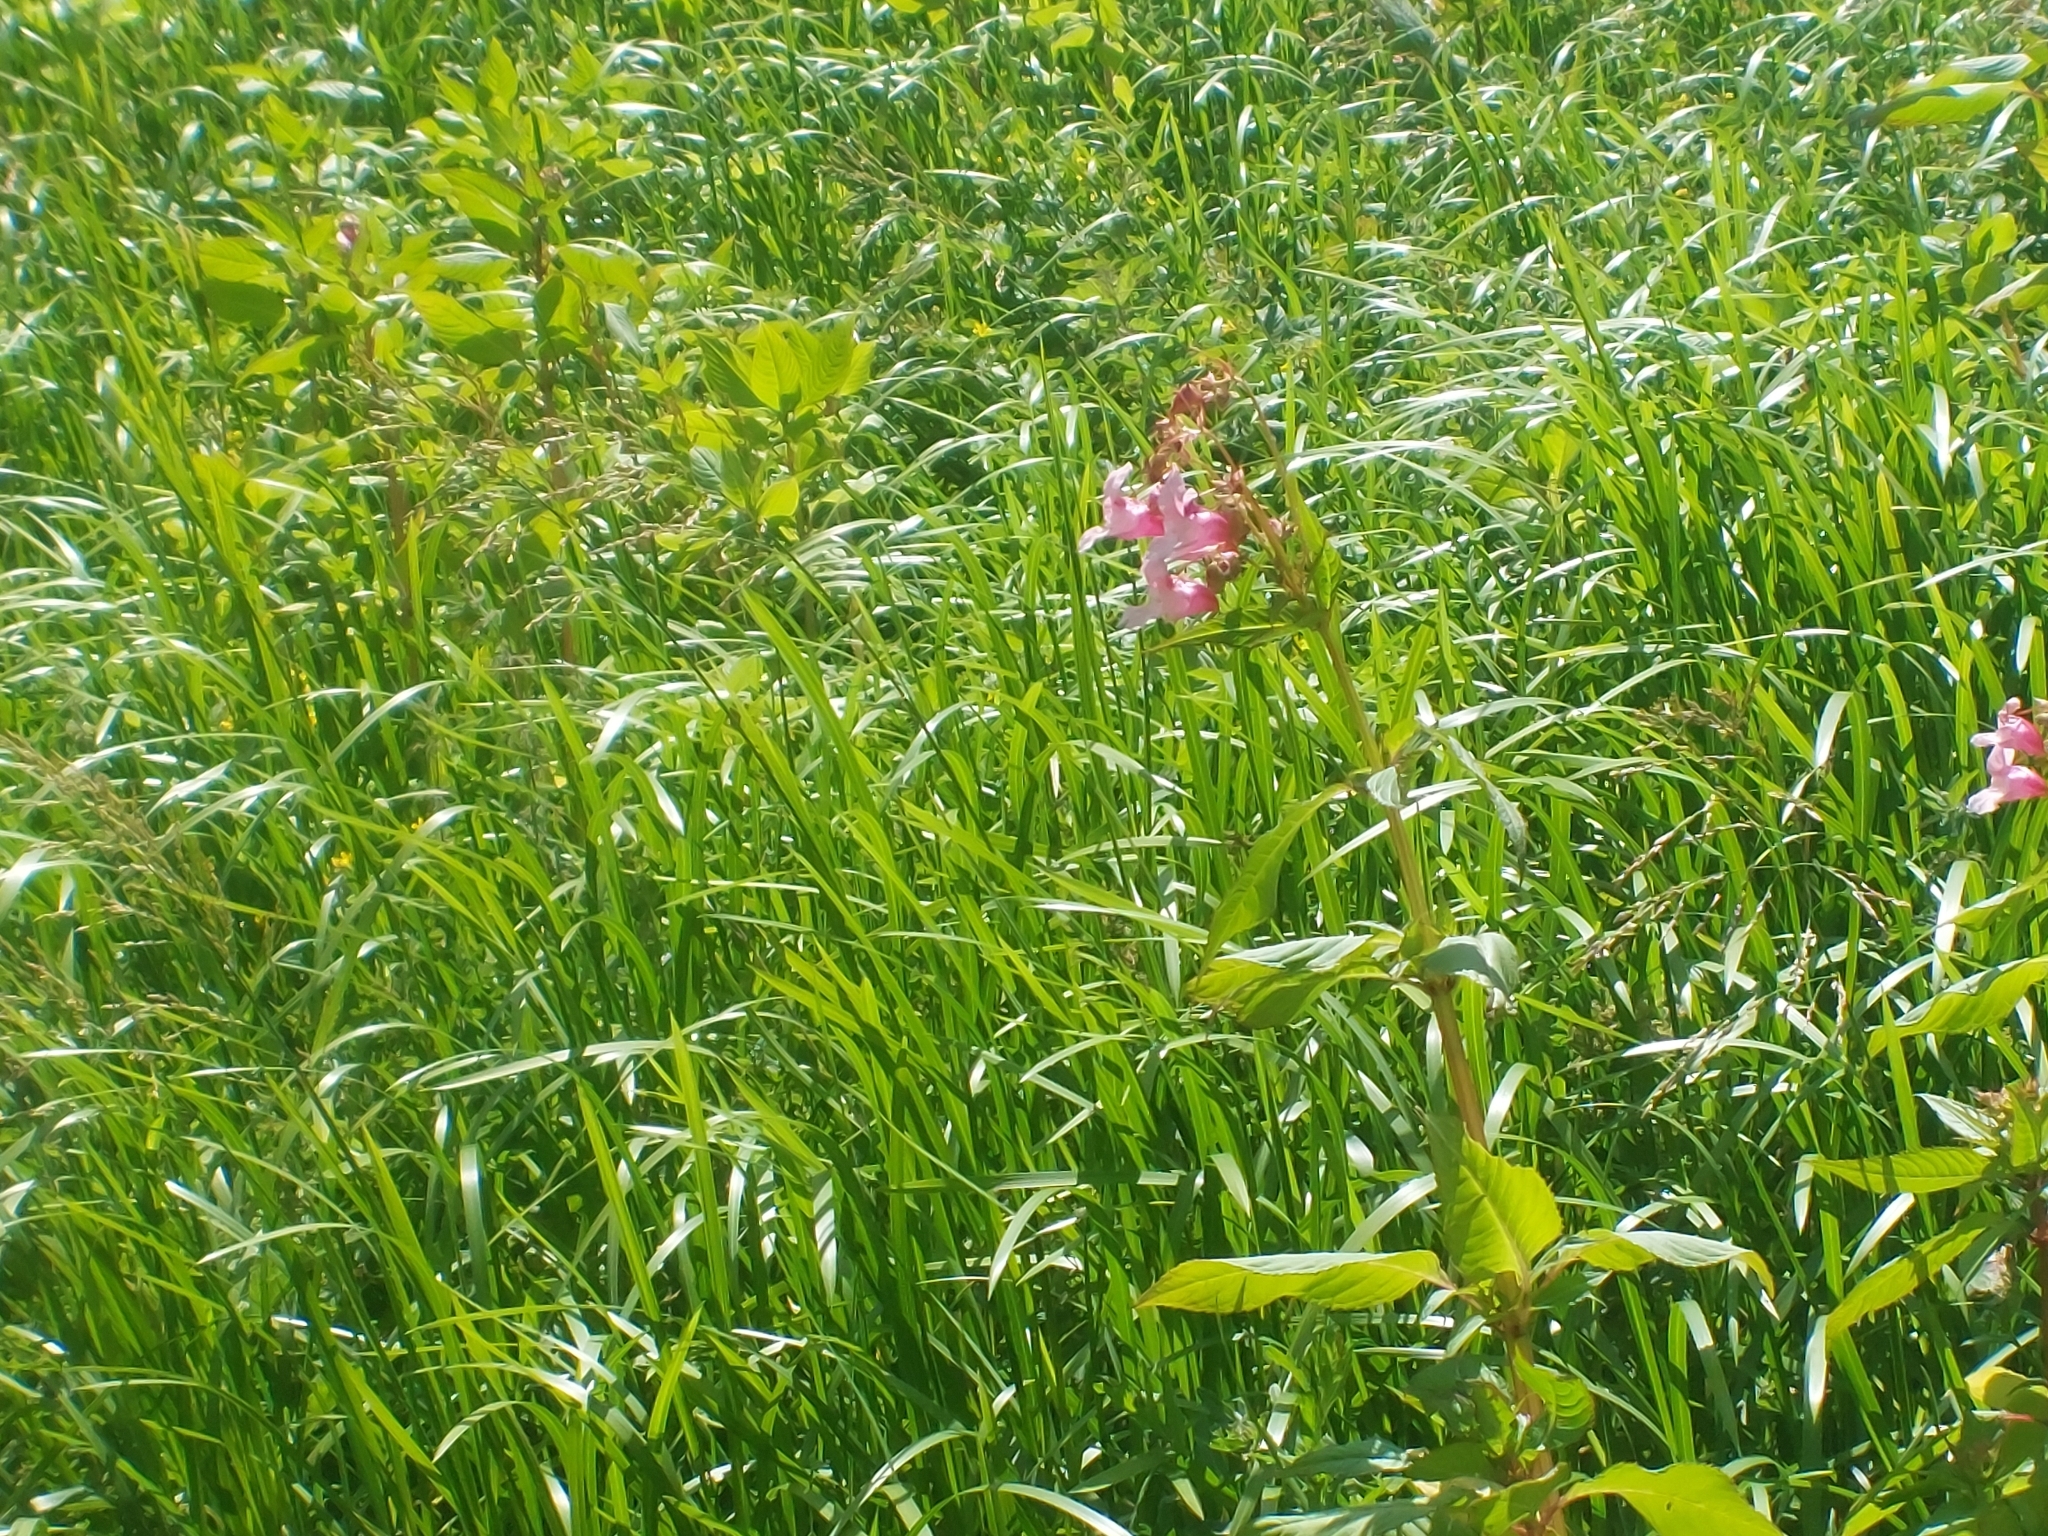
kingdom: Plantae
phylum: Tracheophyta
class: Magnoliopsida
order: Ericales
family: Balsaminaceae
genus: Impatiens
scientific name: Impatiens glandulifera
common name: Himalayan balsam
